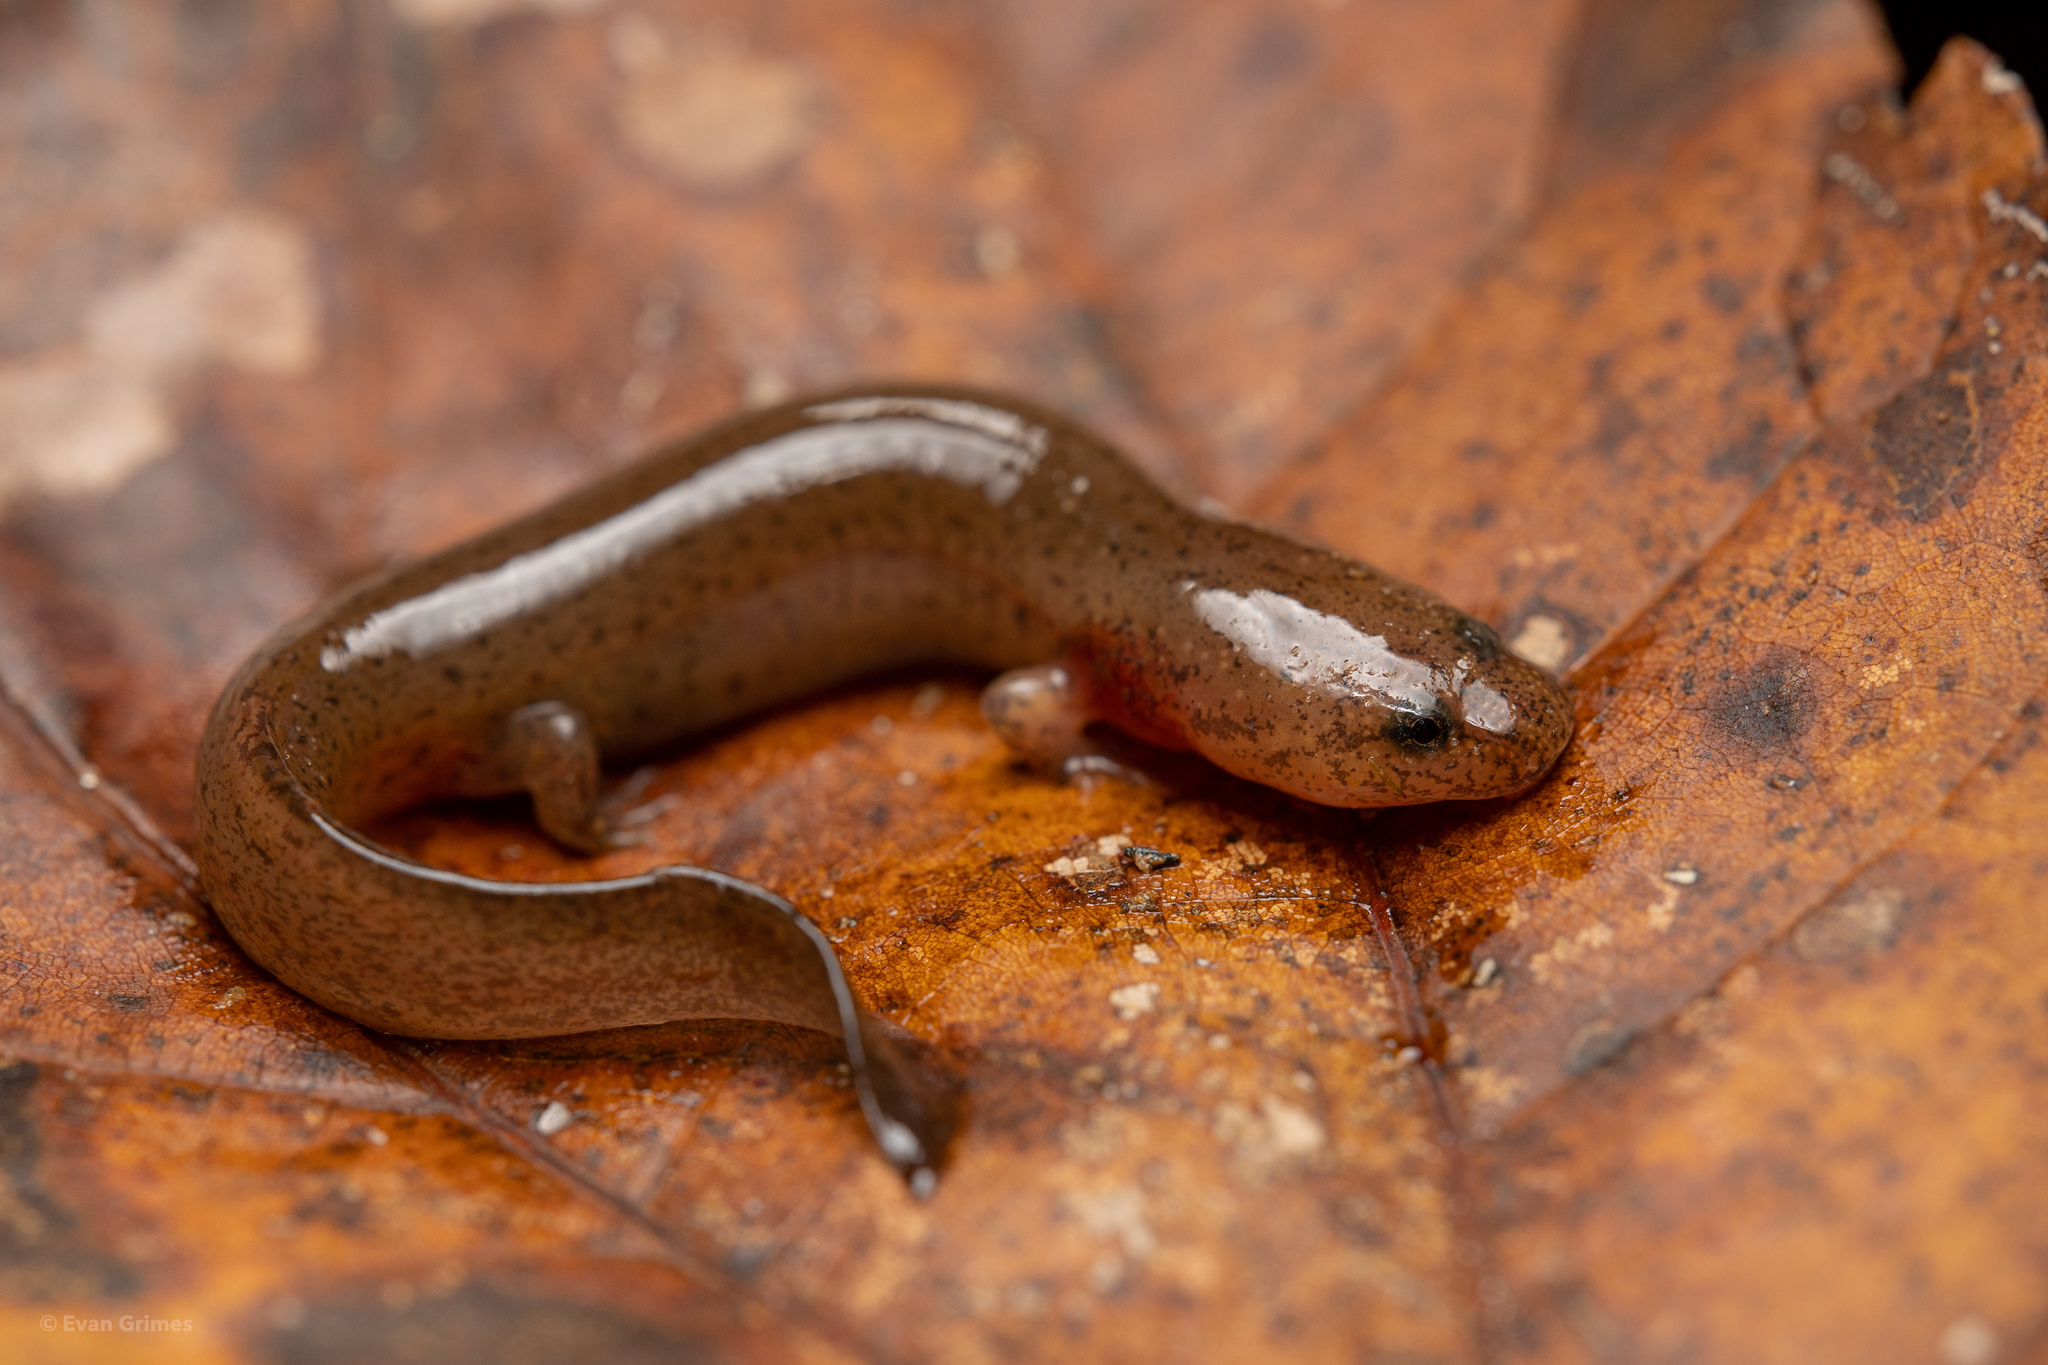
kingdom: Animalia
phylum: Chordata
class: Amphibia
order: Caudata
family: Plethodontidae
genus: Pseudotriton
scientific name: Pseudotriton ruber
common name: Red salamander
